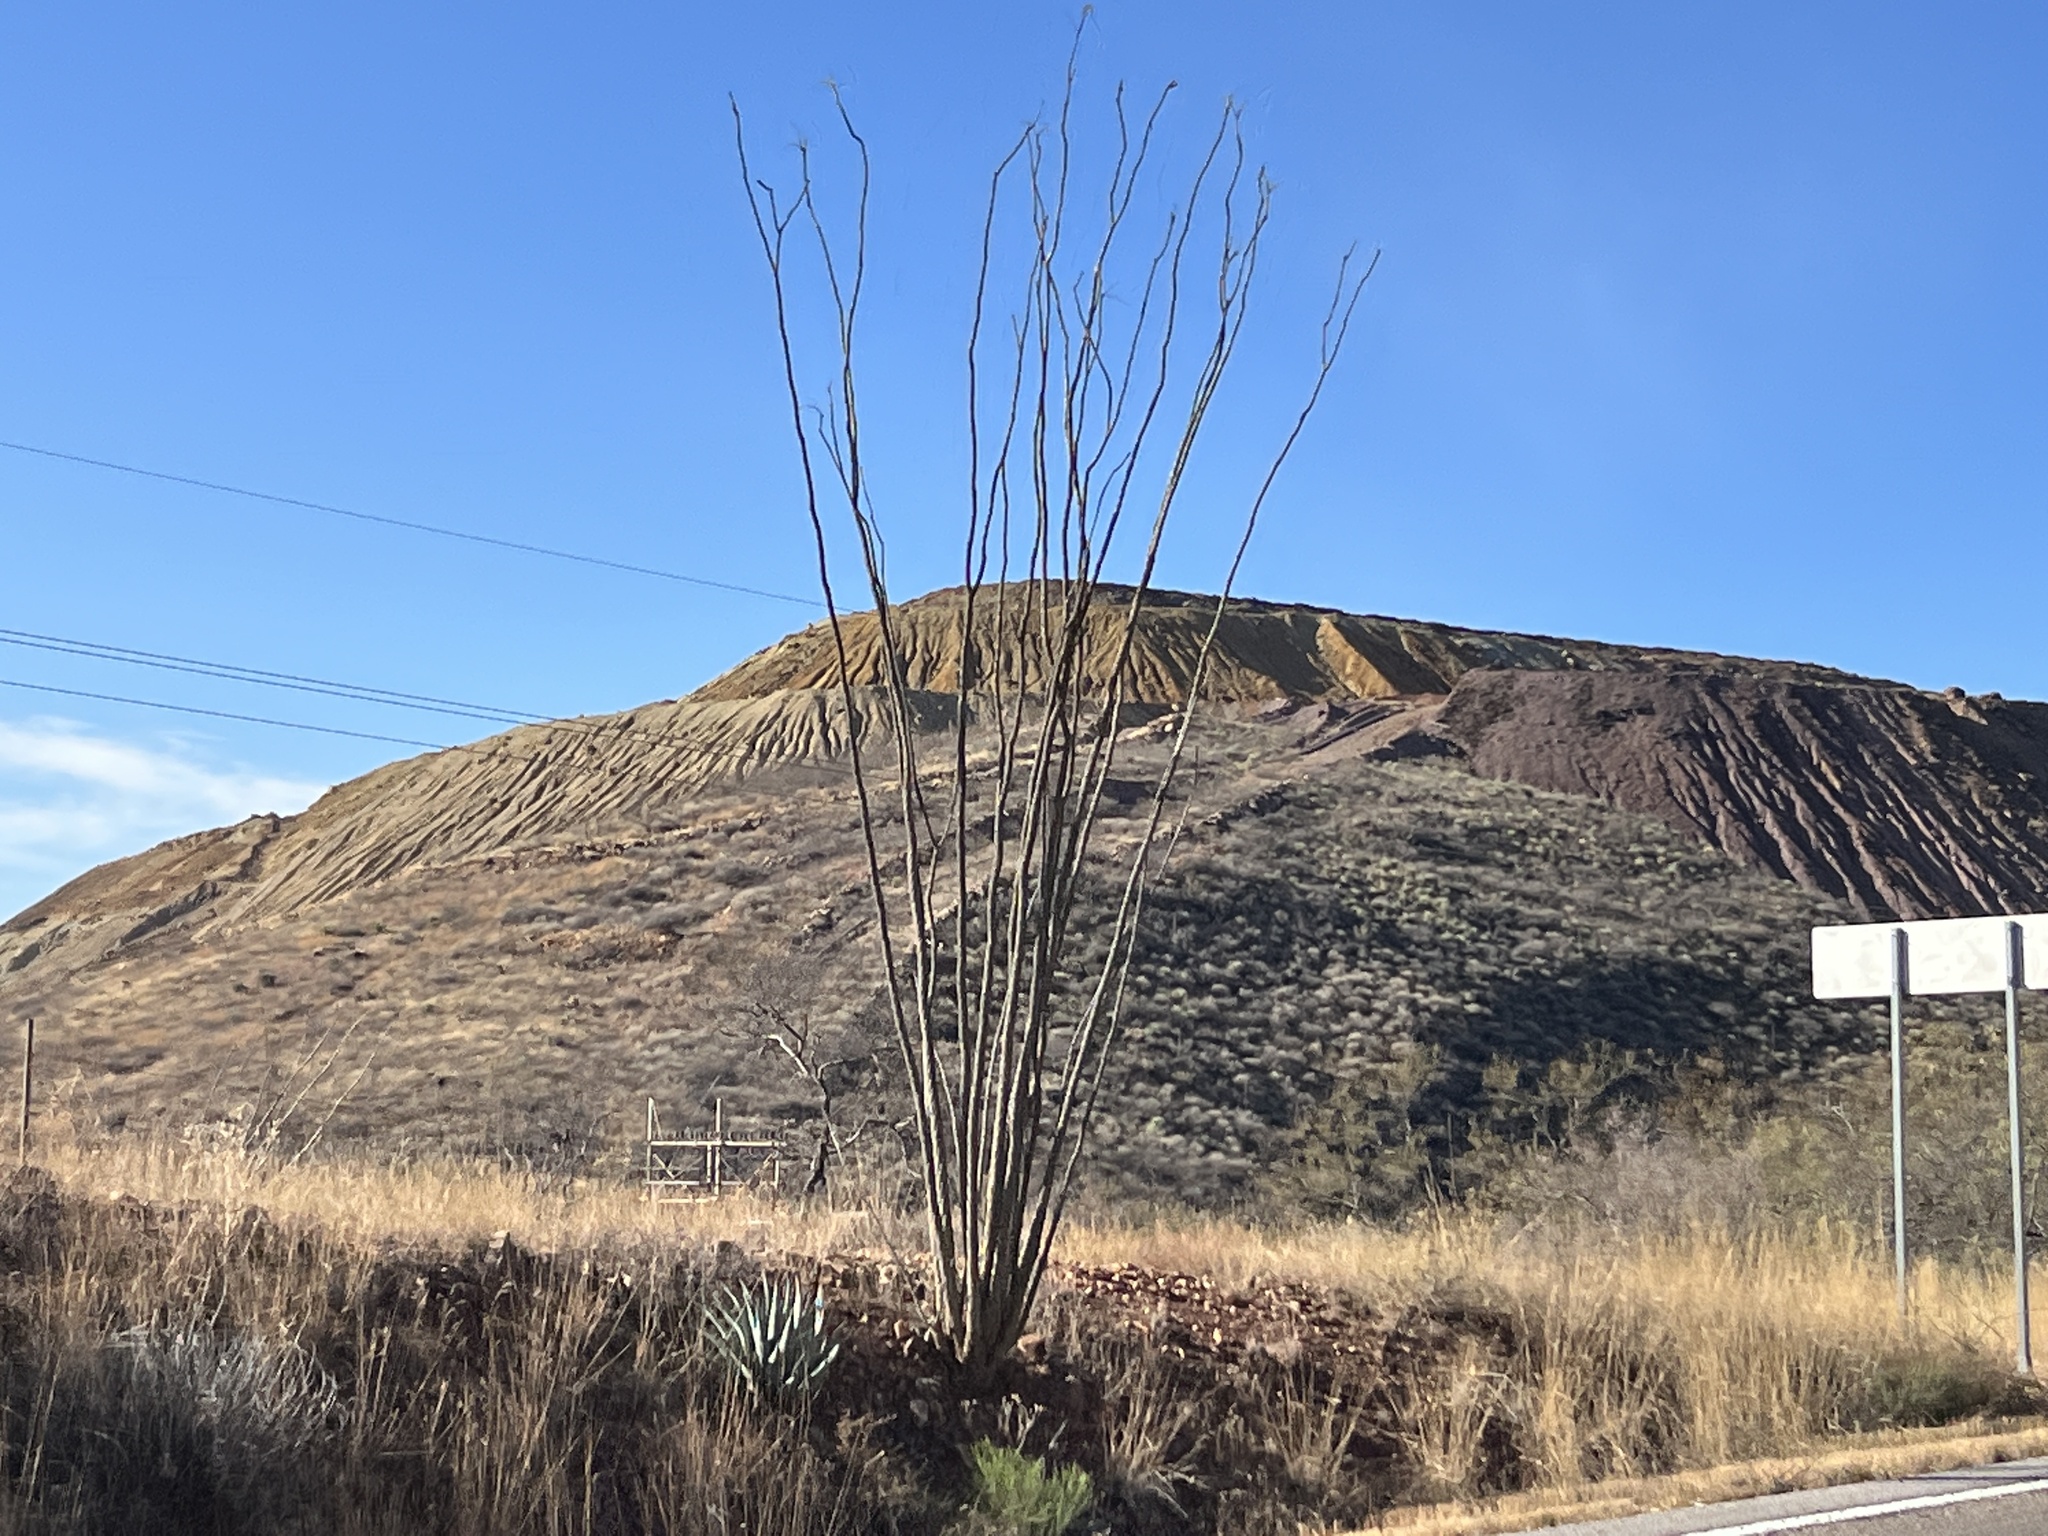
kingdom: Plantae
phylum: Tracheophyta
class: Magnoliopsida
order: Ericales
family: Fouquieriaceae
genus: Fouquieria
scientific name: Fouquieria splendens
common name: Vine-cactus
